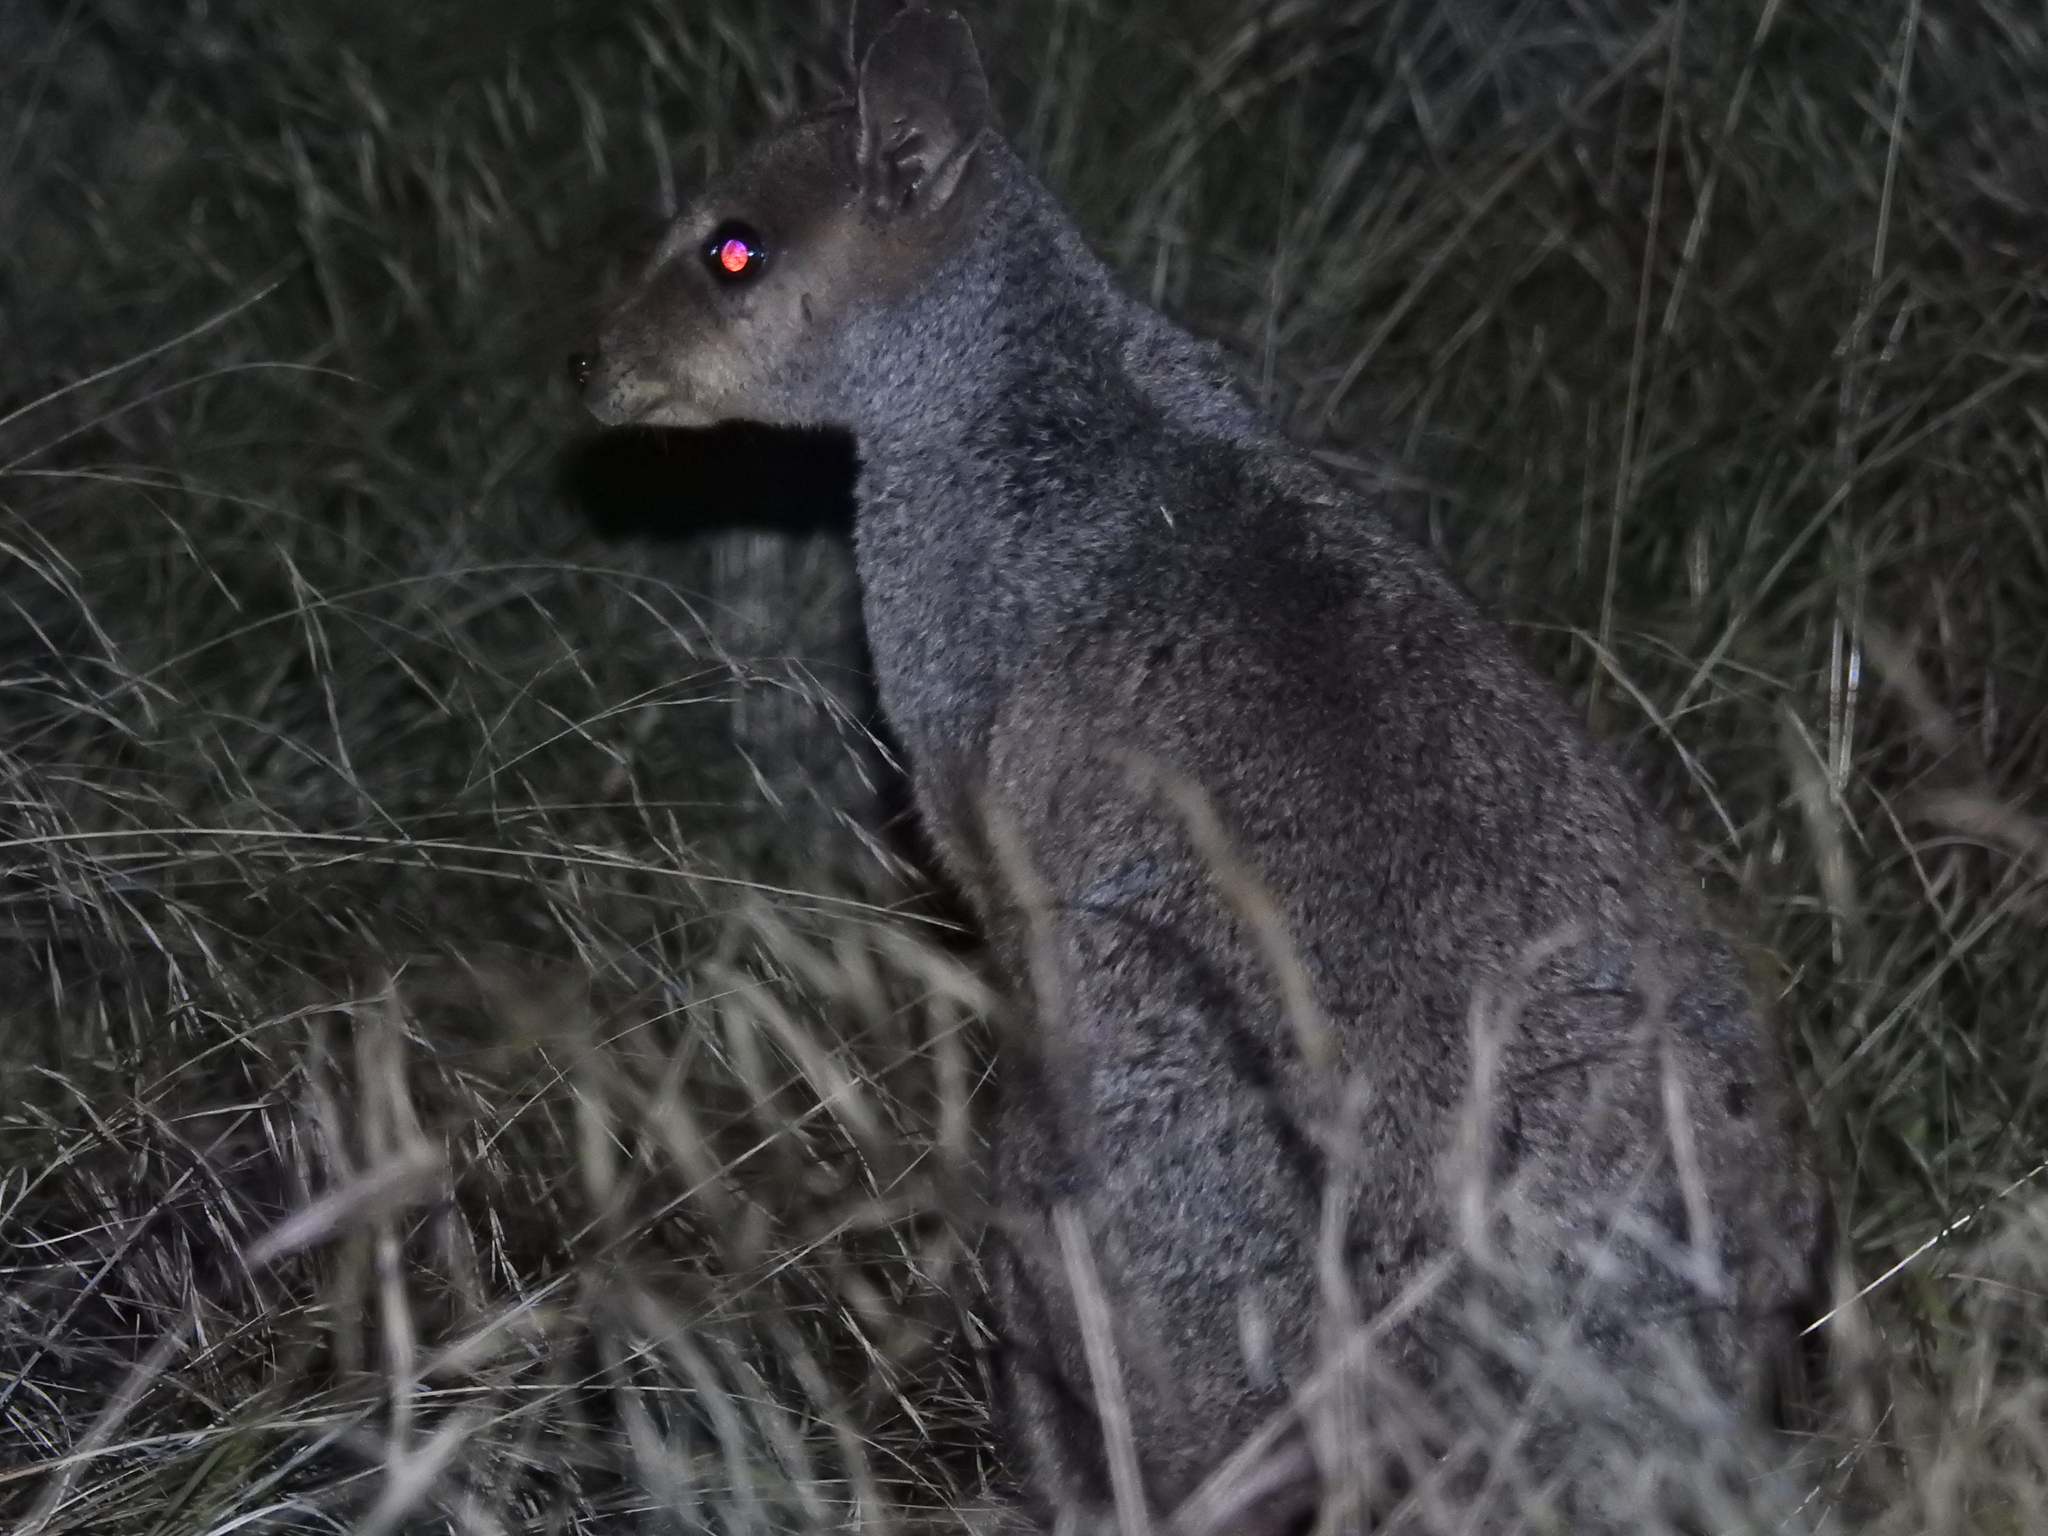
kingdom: Animalia
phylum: Chordata
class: Mammalia
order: Diprotodontia
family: Macropodidae
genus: Petrogale
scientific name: Petrogale assimilis
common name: Allied rock wallaby
